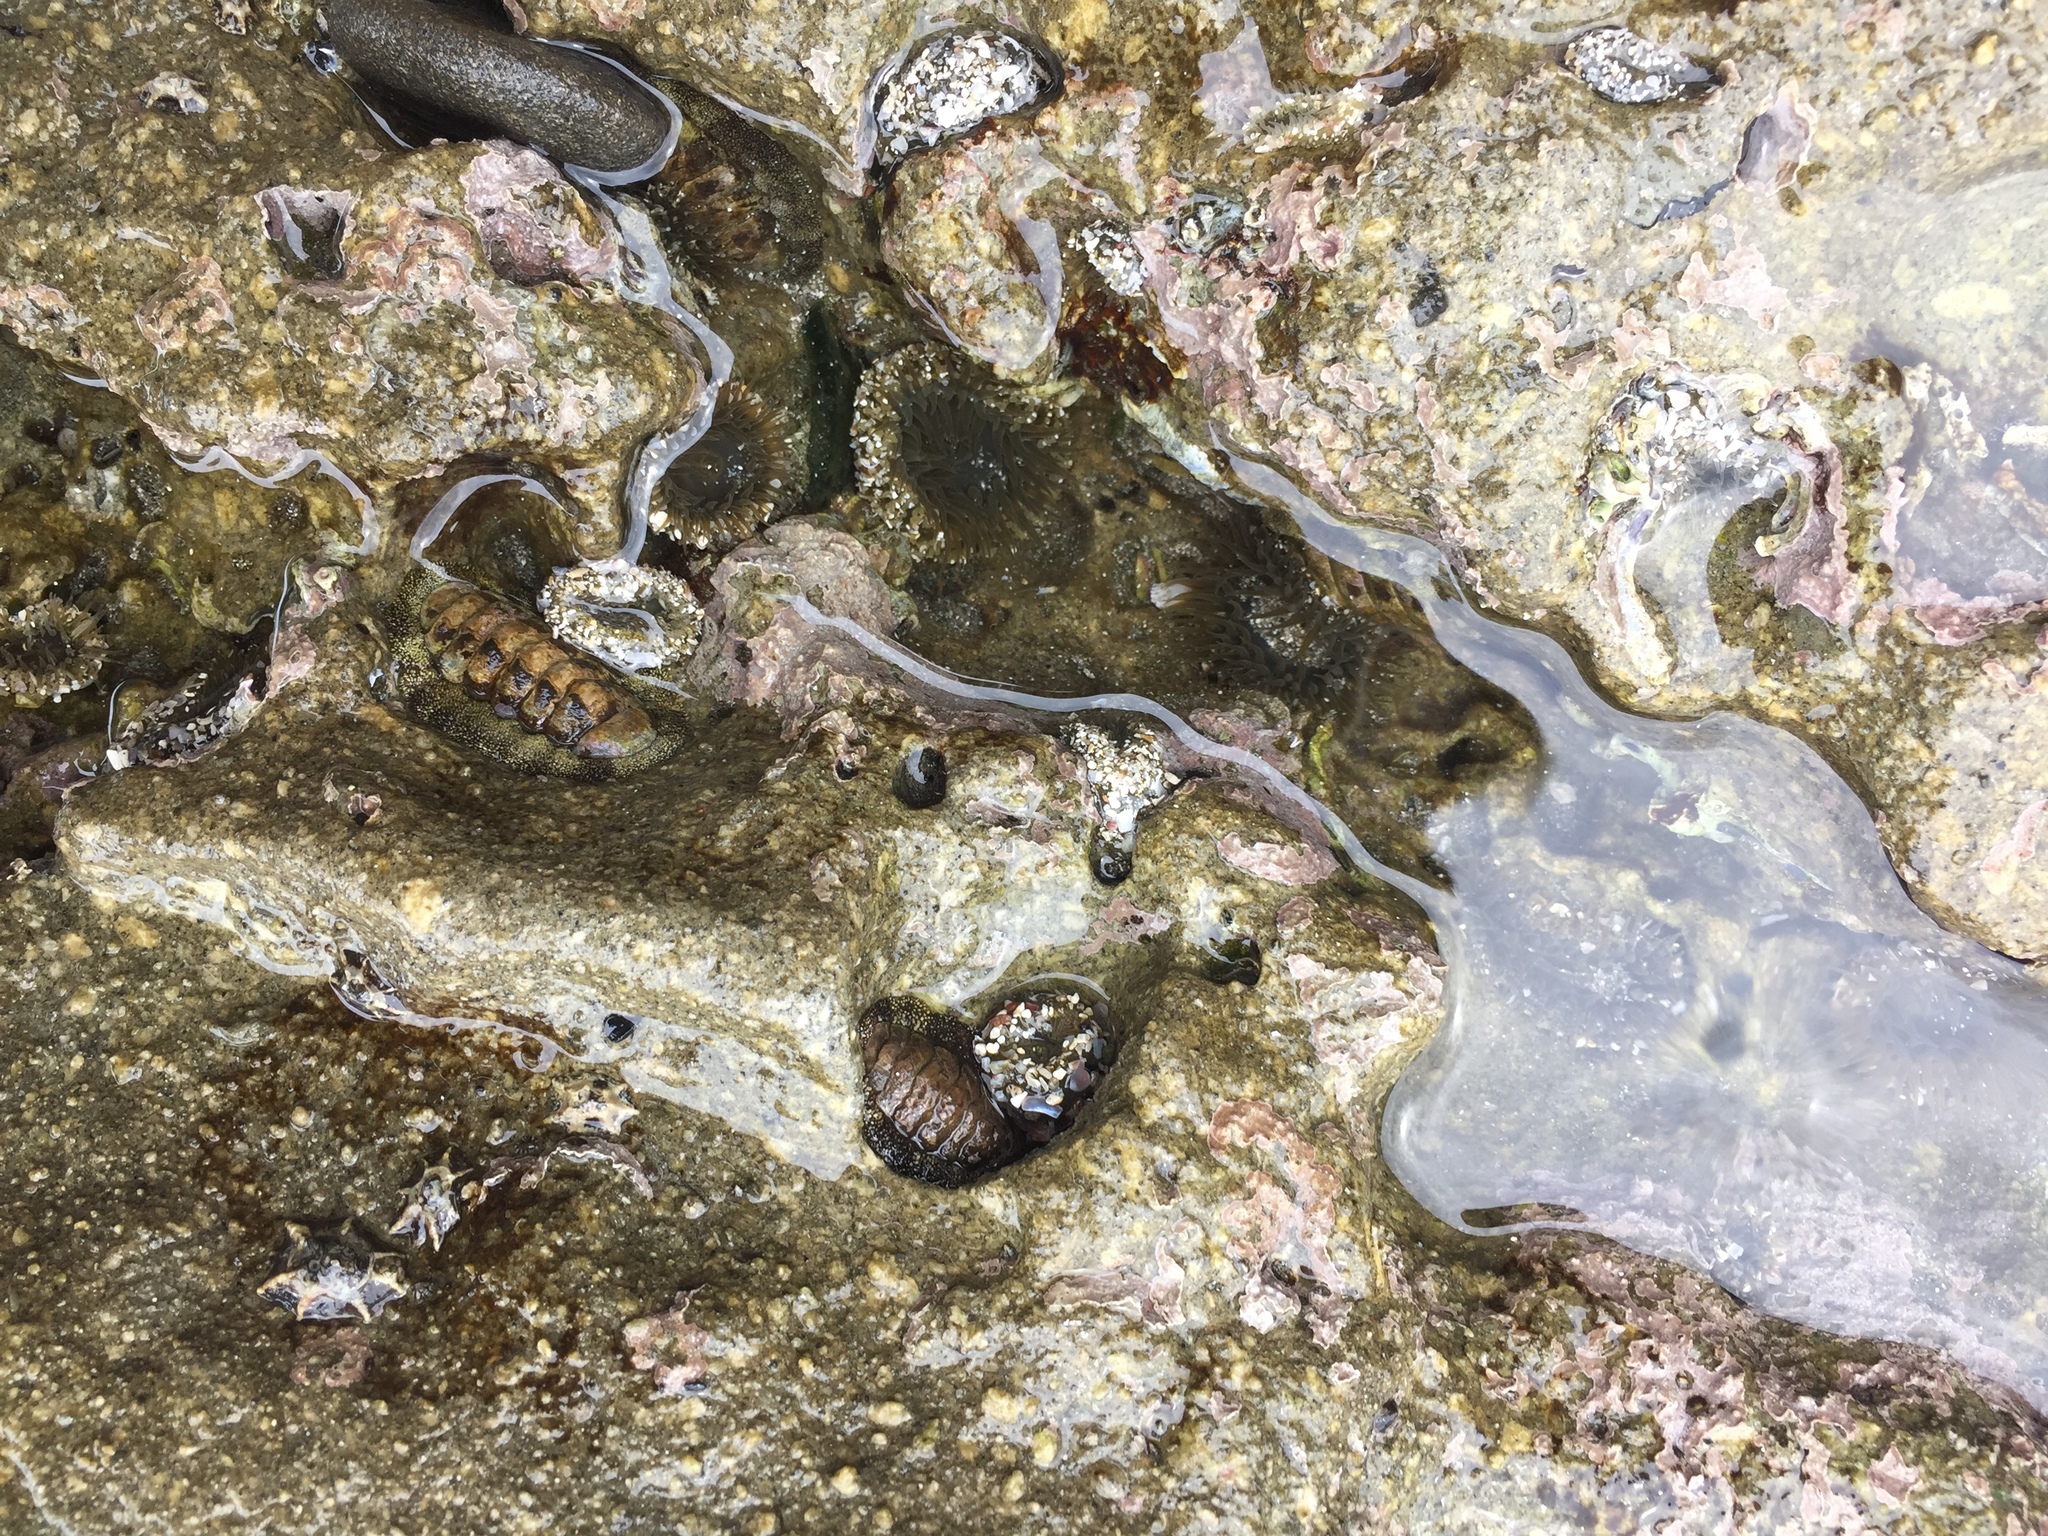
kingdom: Animalia
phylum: Mollusca
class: Polyplacophora
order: Chitonida
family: Chitonidae
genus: Liolophura
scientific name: Liolophura japonica
